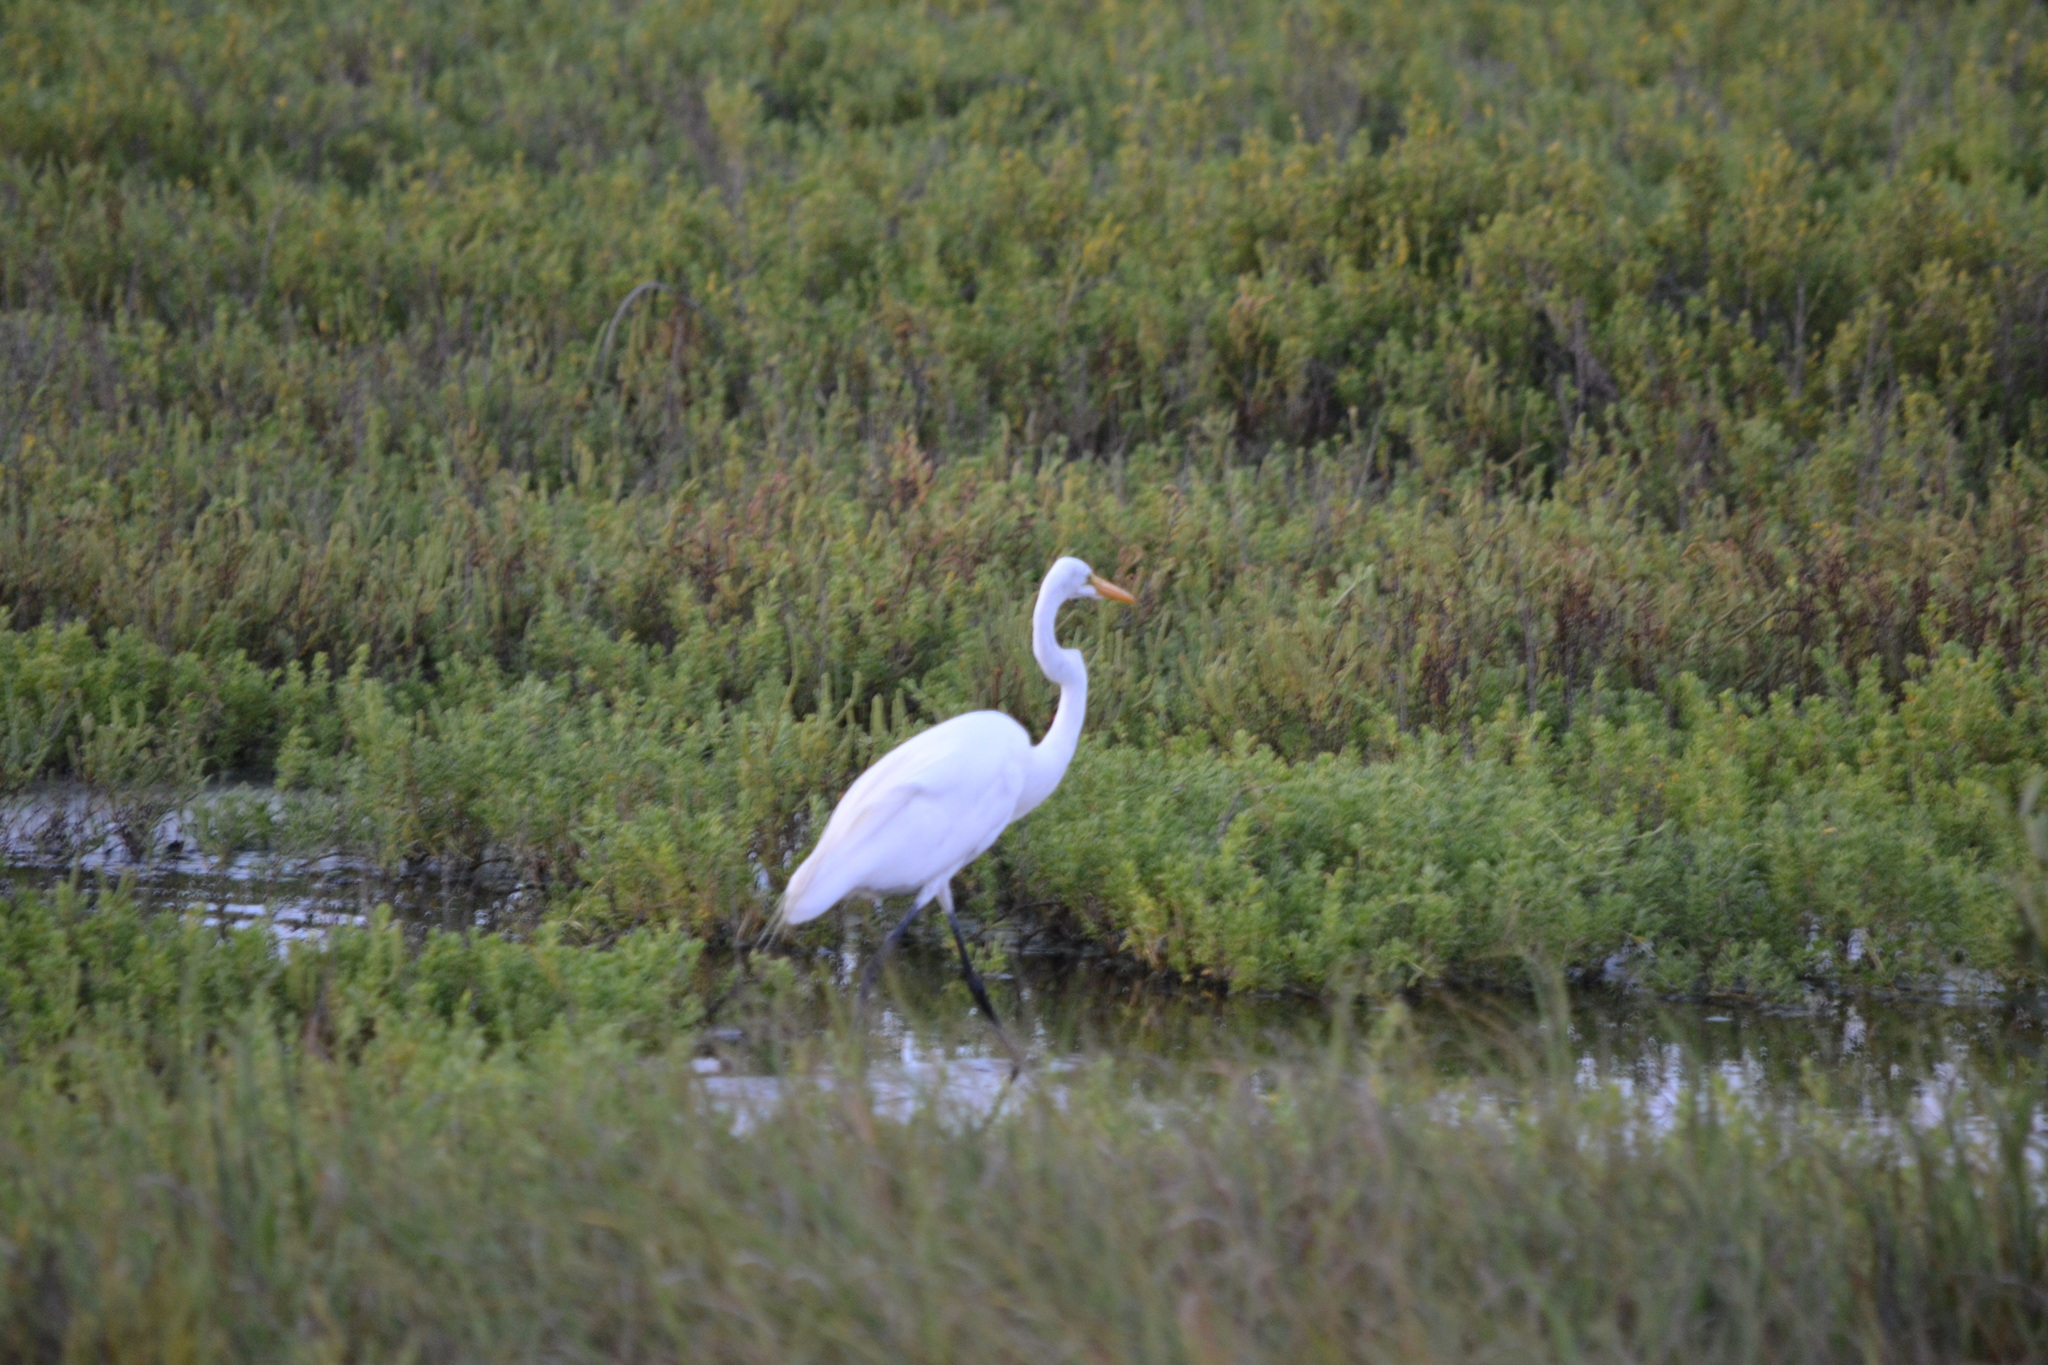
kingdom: Animalia
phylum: Chordata
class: Aves
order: Pelecaniformes
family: Ardeidae
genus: Ardea
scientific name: Ardea alba
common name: Great egret
